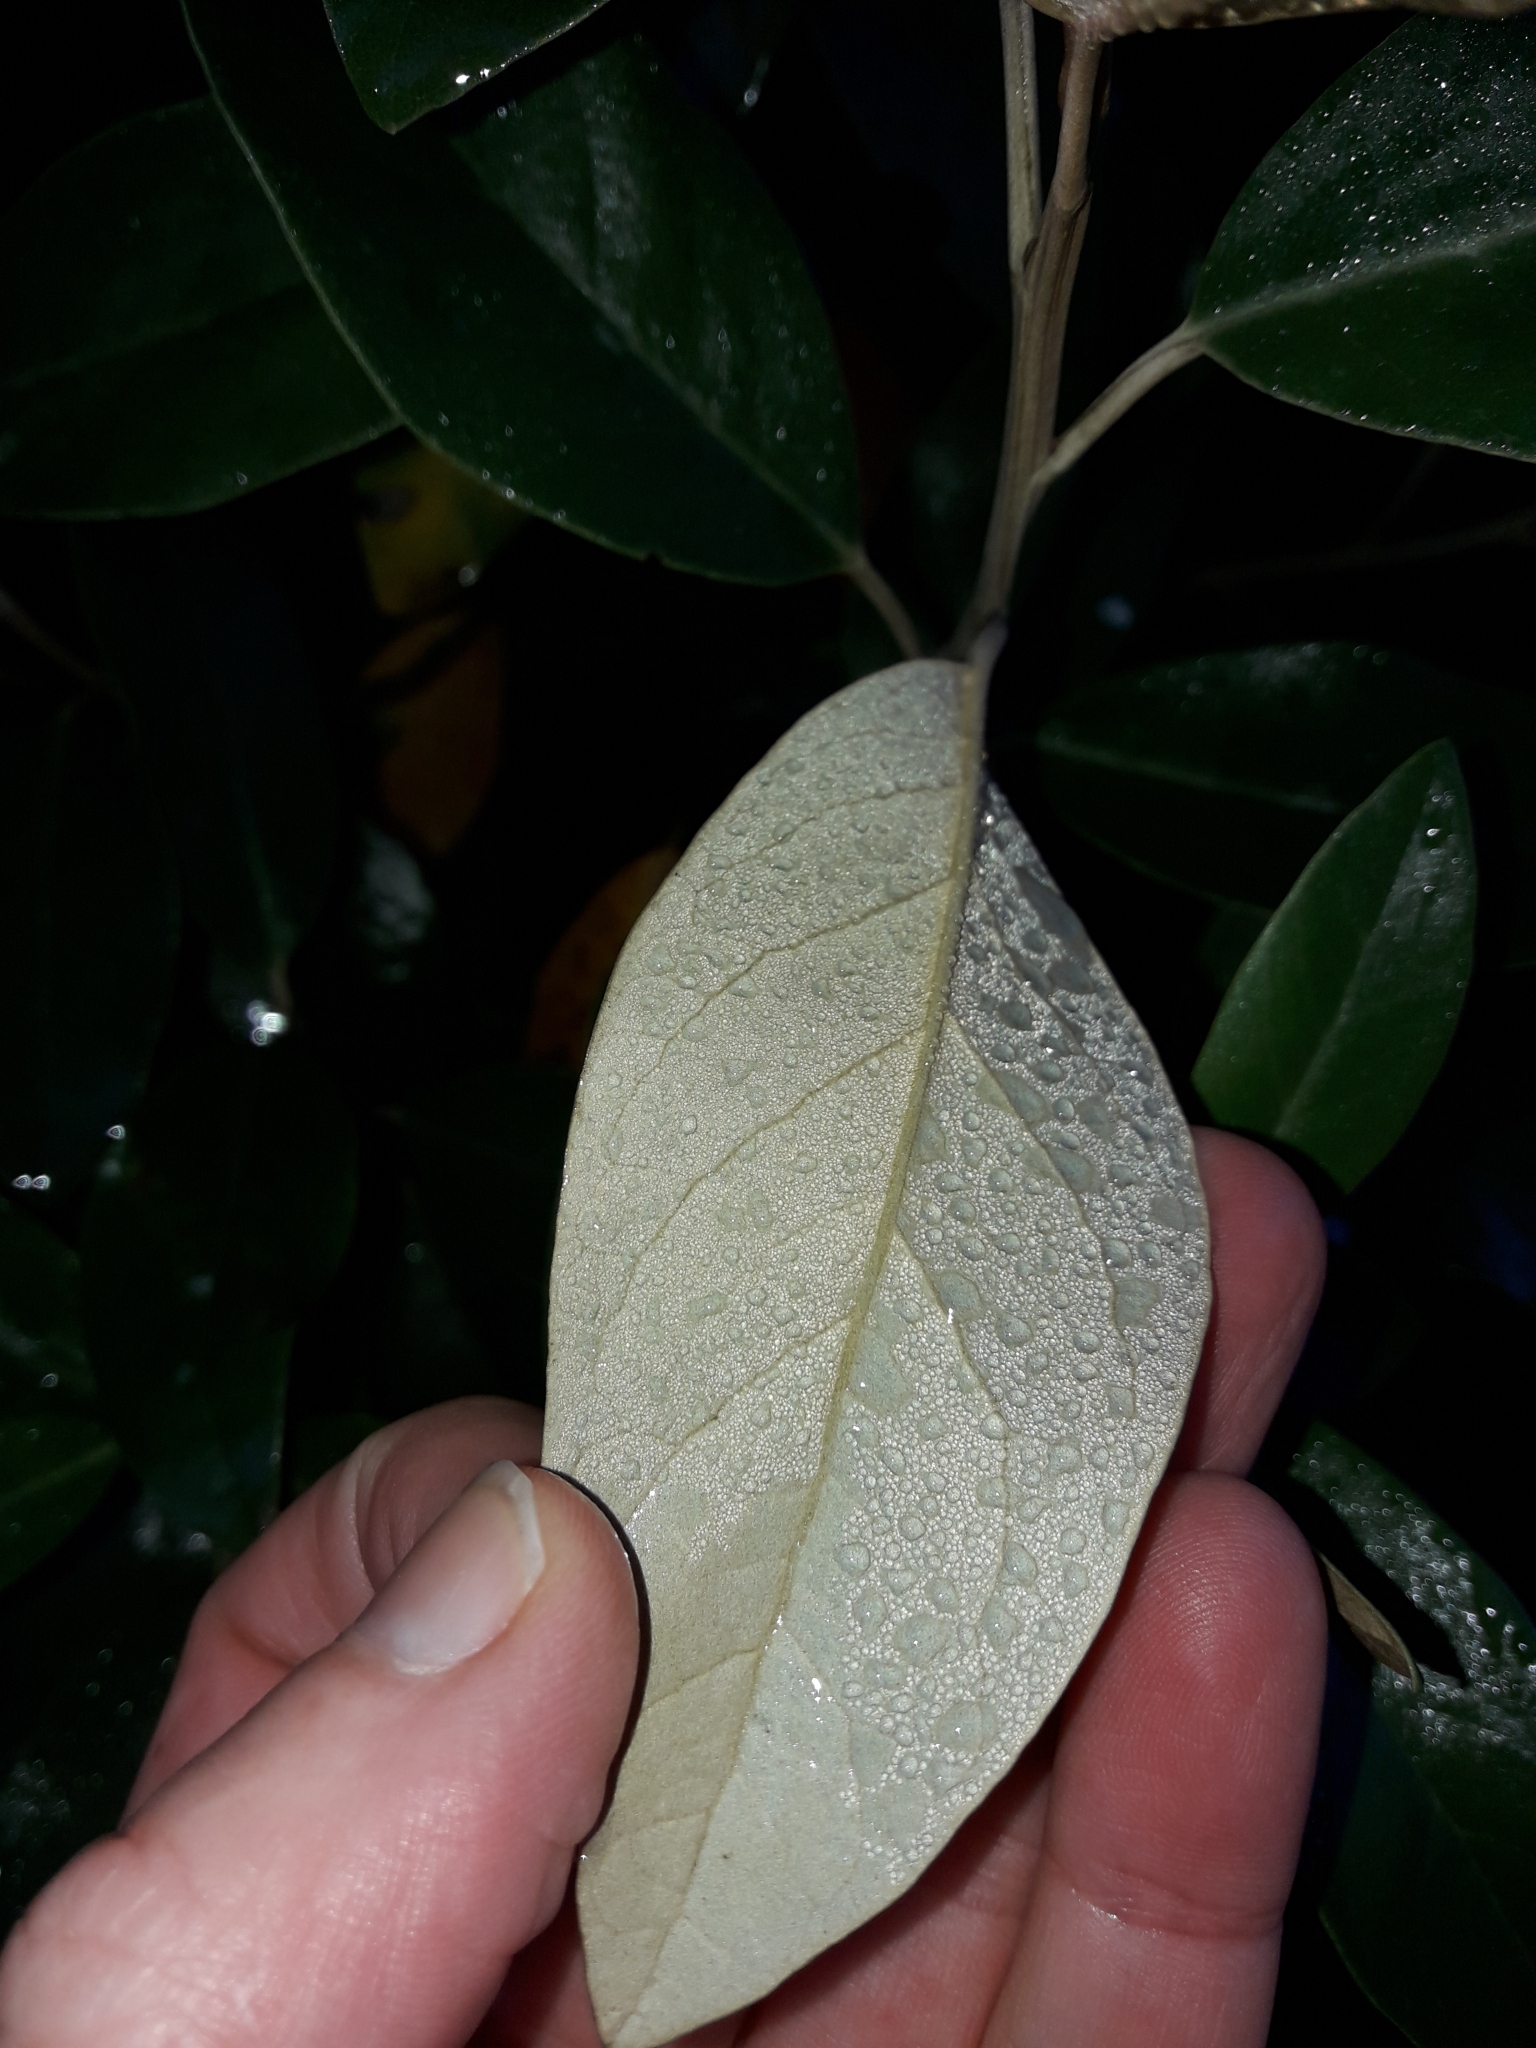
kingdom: Plantae
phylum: Tracheophyta
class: Magnoliopsida
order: Asterales
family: Asteraceae
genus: Olearia
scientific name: Olearia avicenniifolia
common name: Mangrove-leaf daisybush
